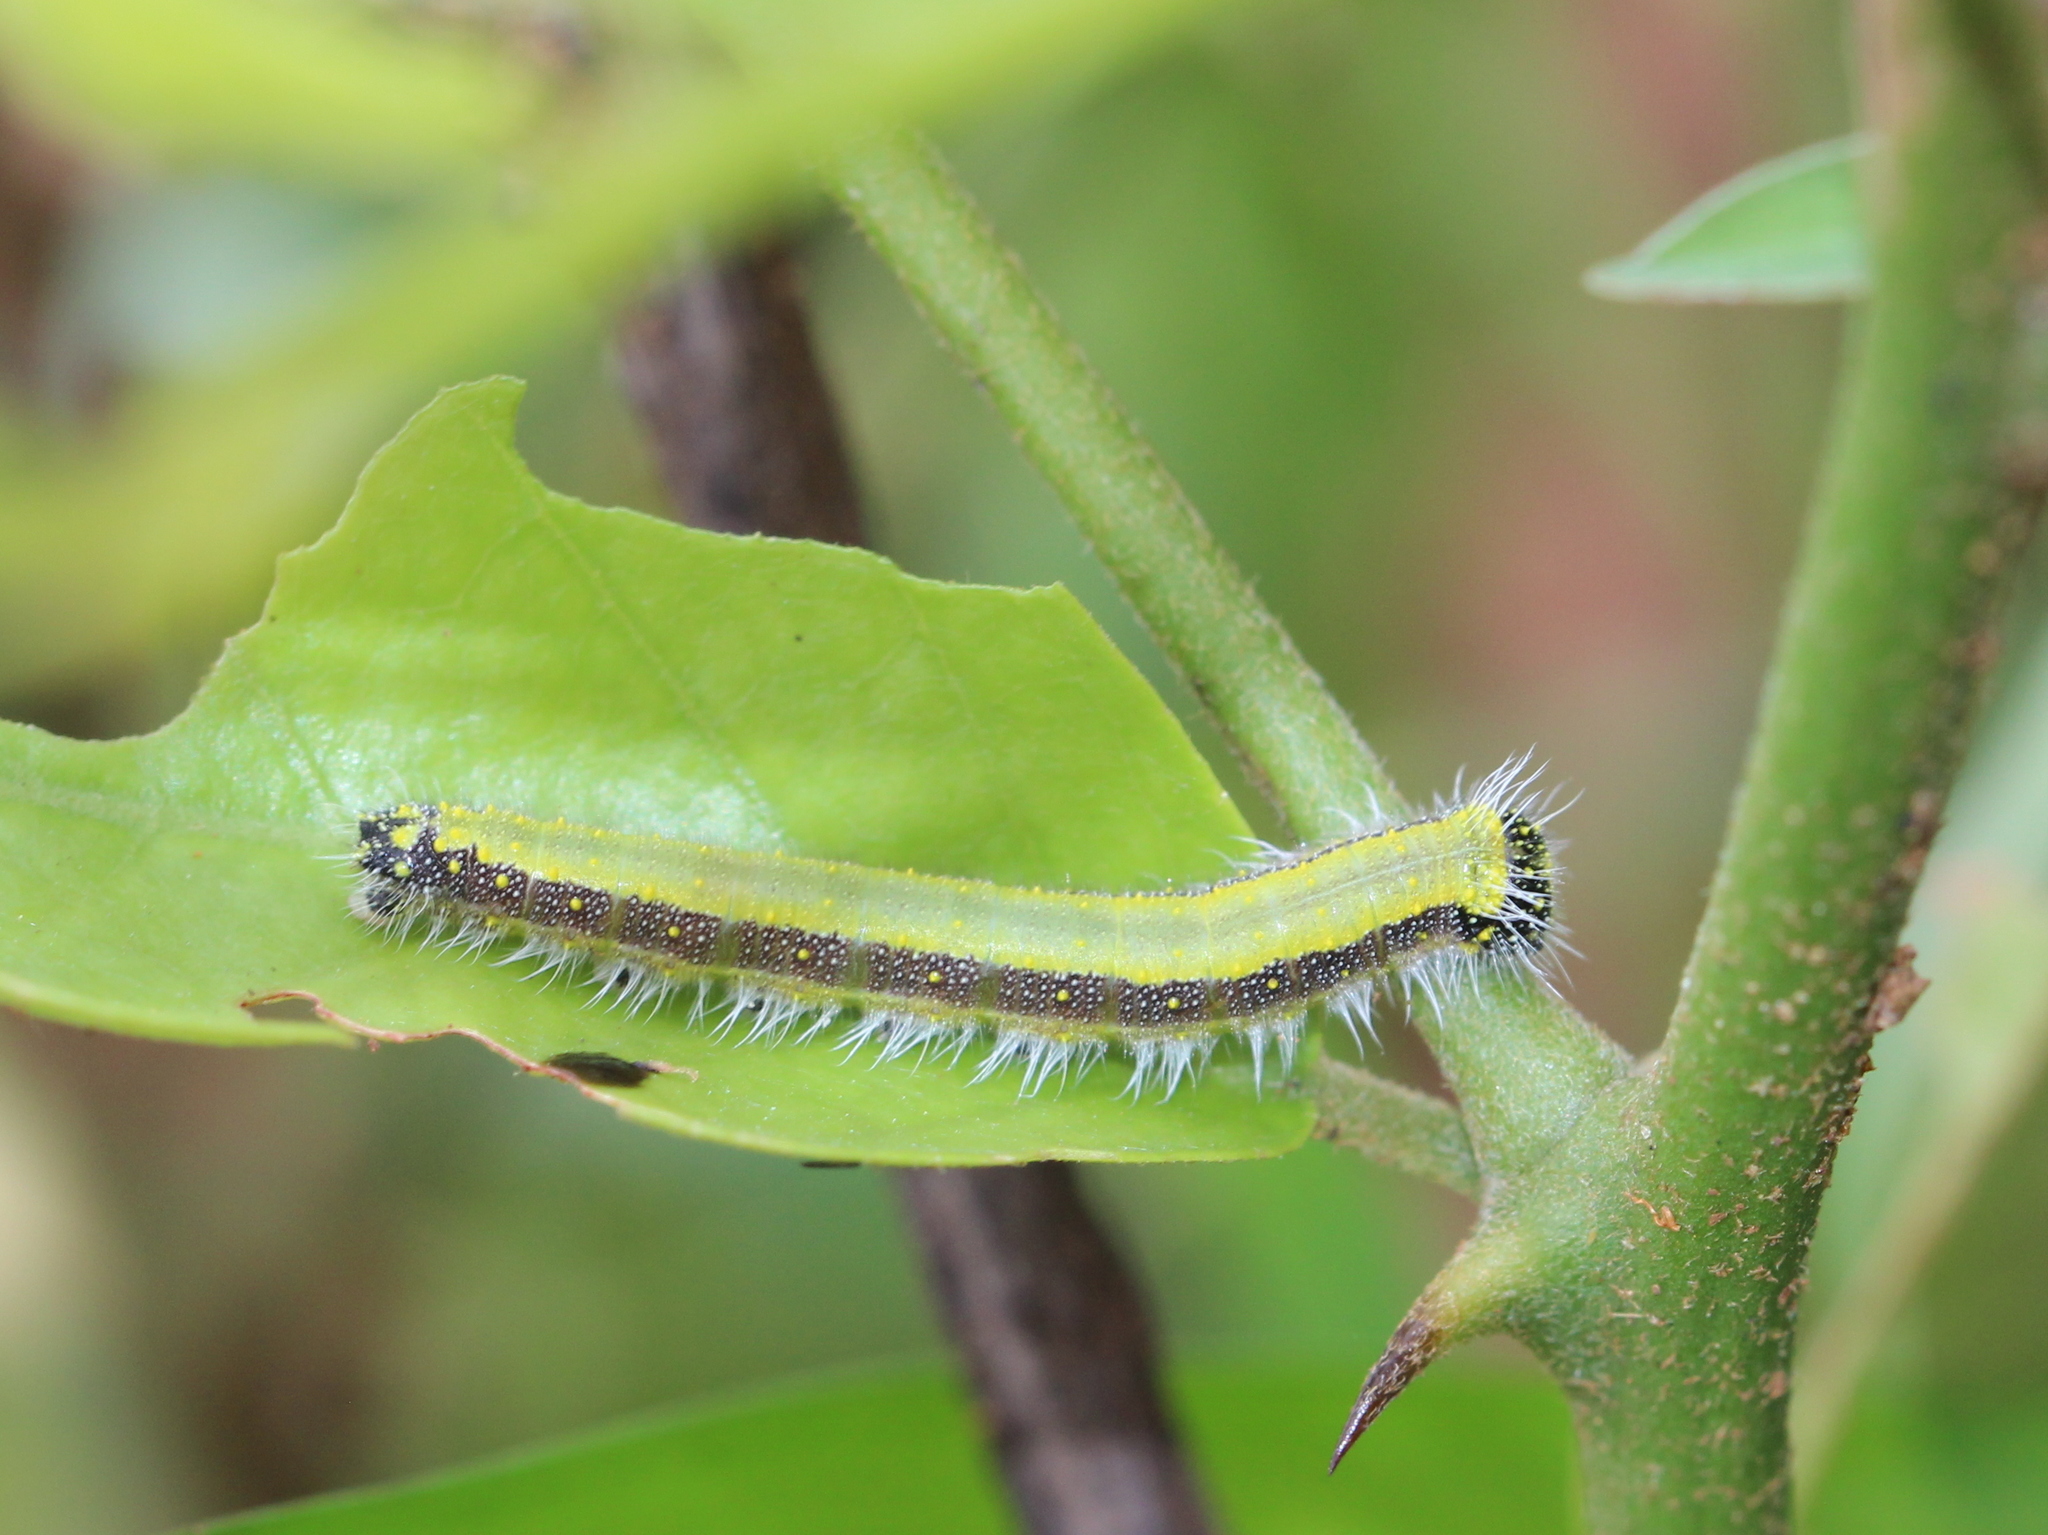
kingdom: Animalia
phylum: Arthropoda
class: Insecta
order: Lepidoptera
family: Pieridae
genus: Belenois
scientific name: Belenois aurota
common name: Brown-veined white
